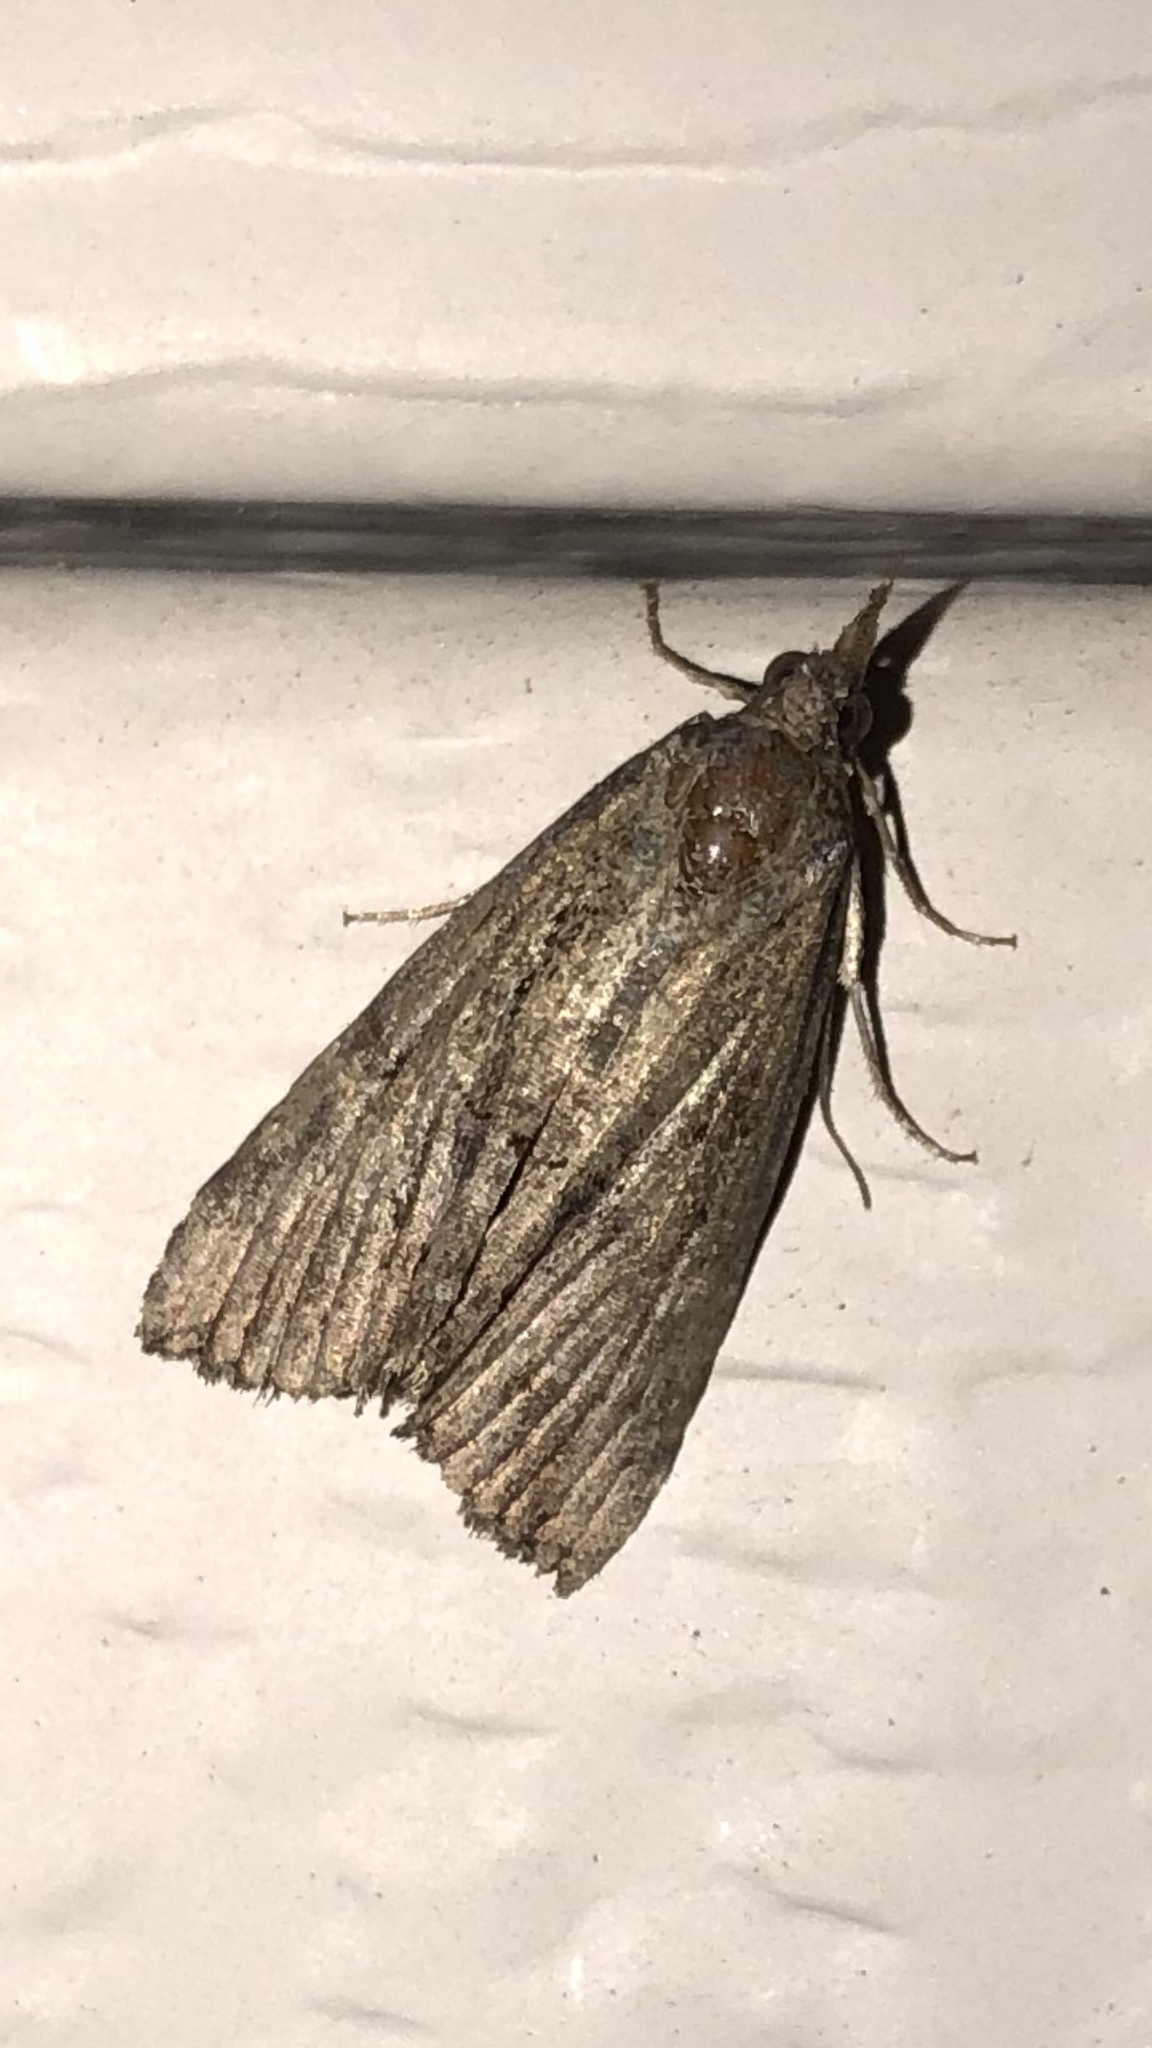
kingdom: Animalia
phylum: Arthropoda
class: Insecta
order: Lepidoptera
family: Erebidae
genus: Hypena
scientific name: Hypena scabra
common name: Green cloverworm
